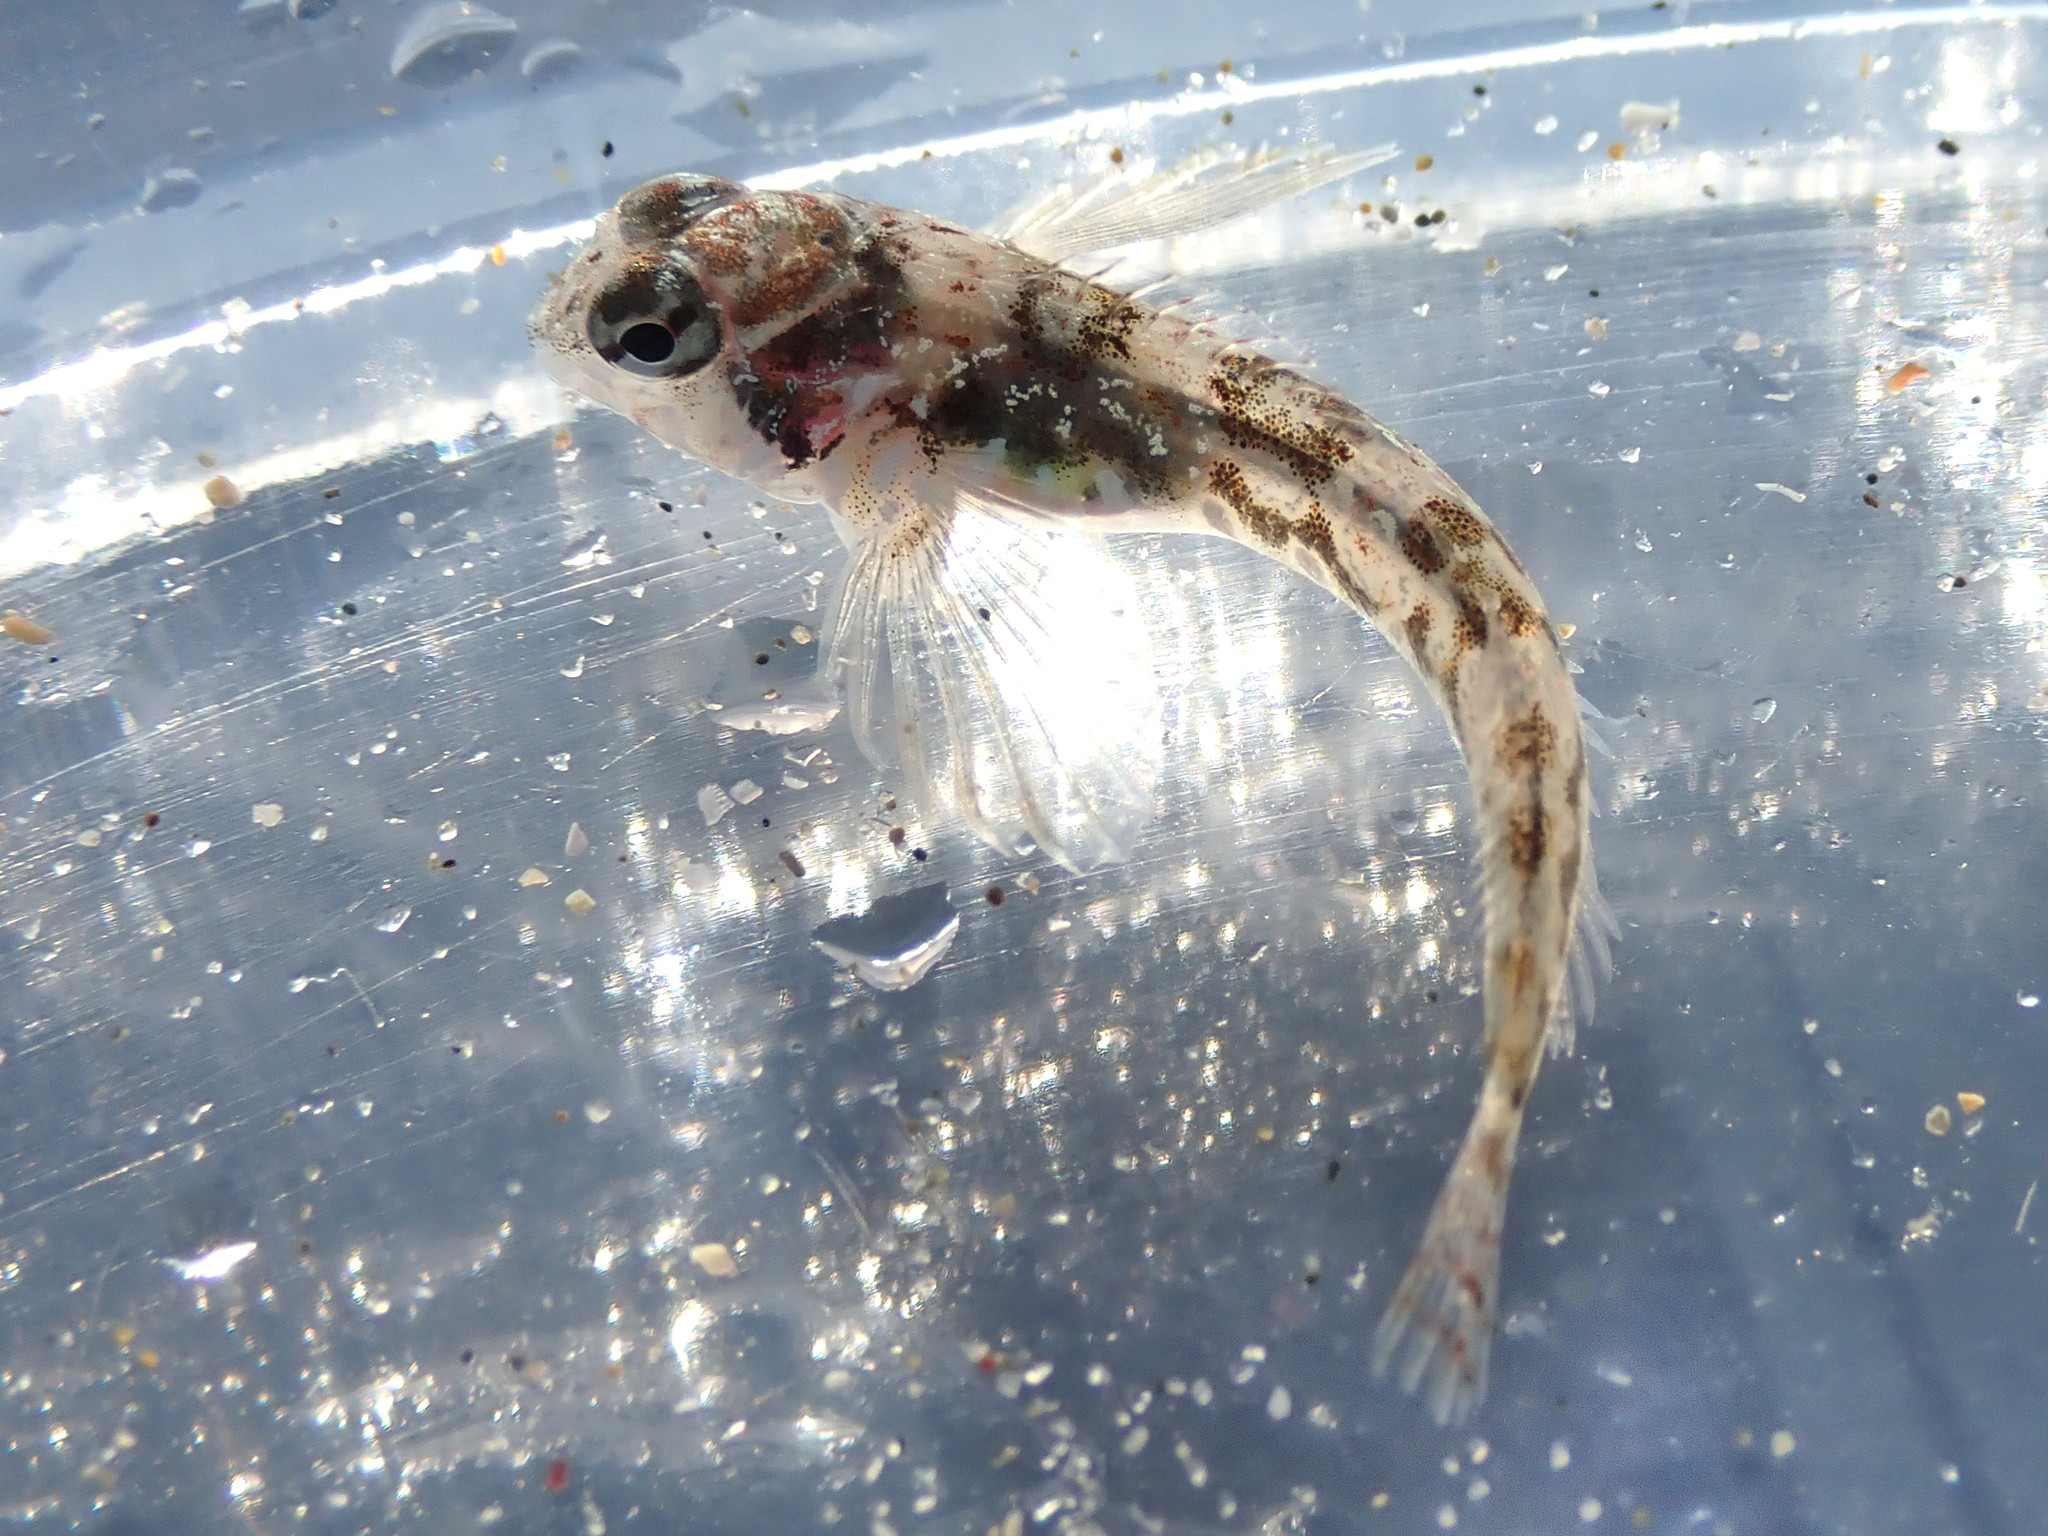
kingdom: Animalia
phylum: Chordata
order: Perciformes
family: Tripterygiidae
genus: Bellapiscis
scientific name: Bellapiscis lesleyae
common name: Mottled twister
